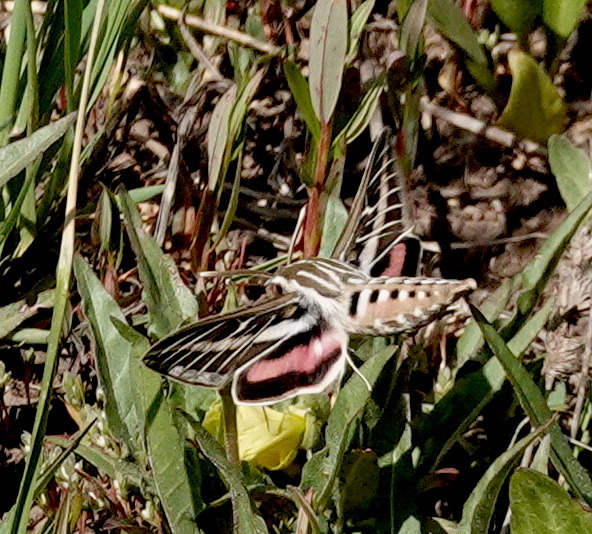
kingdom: Animalia
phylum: Arthropoda
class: Insecta
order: Lepidoptera
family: Sphingidae
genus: Hyles
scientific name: Hyles lineata
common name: White-lined sphinx
